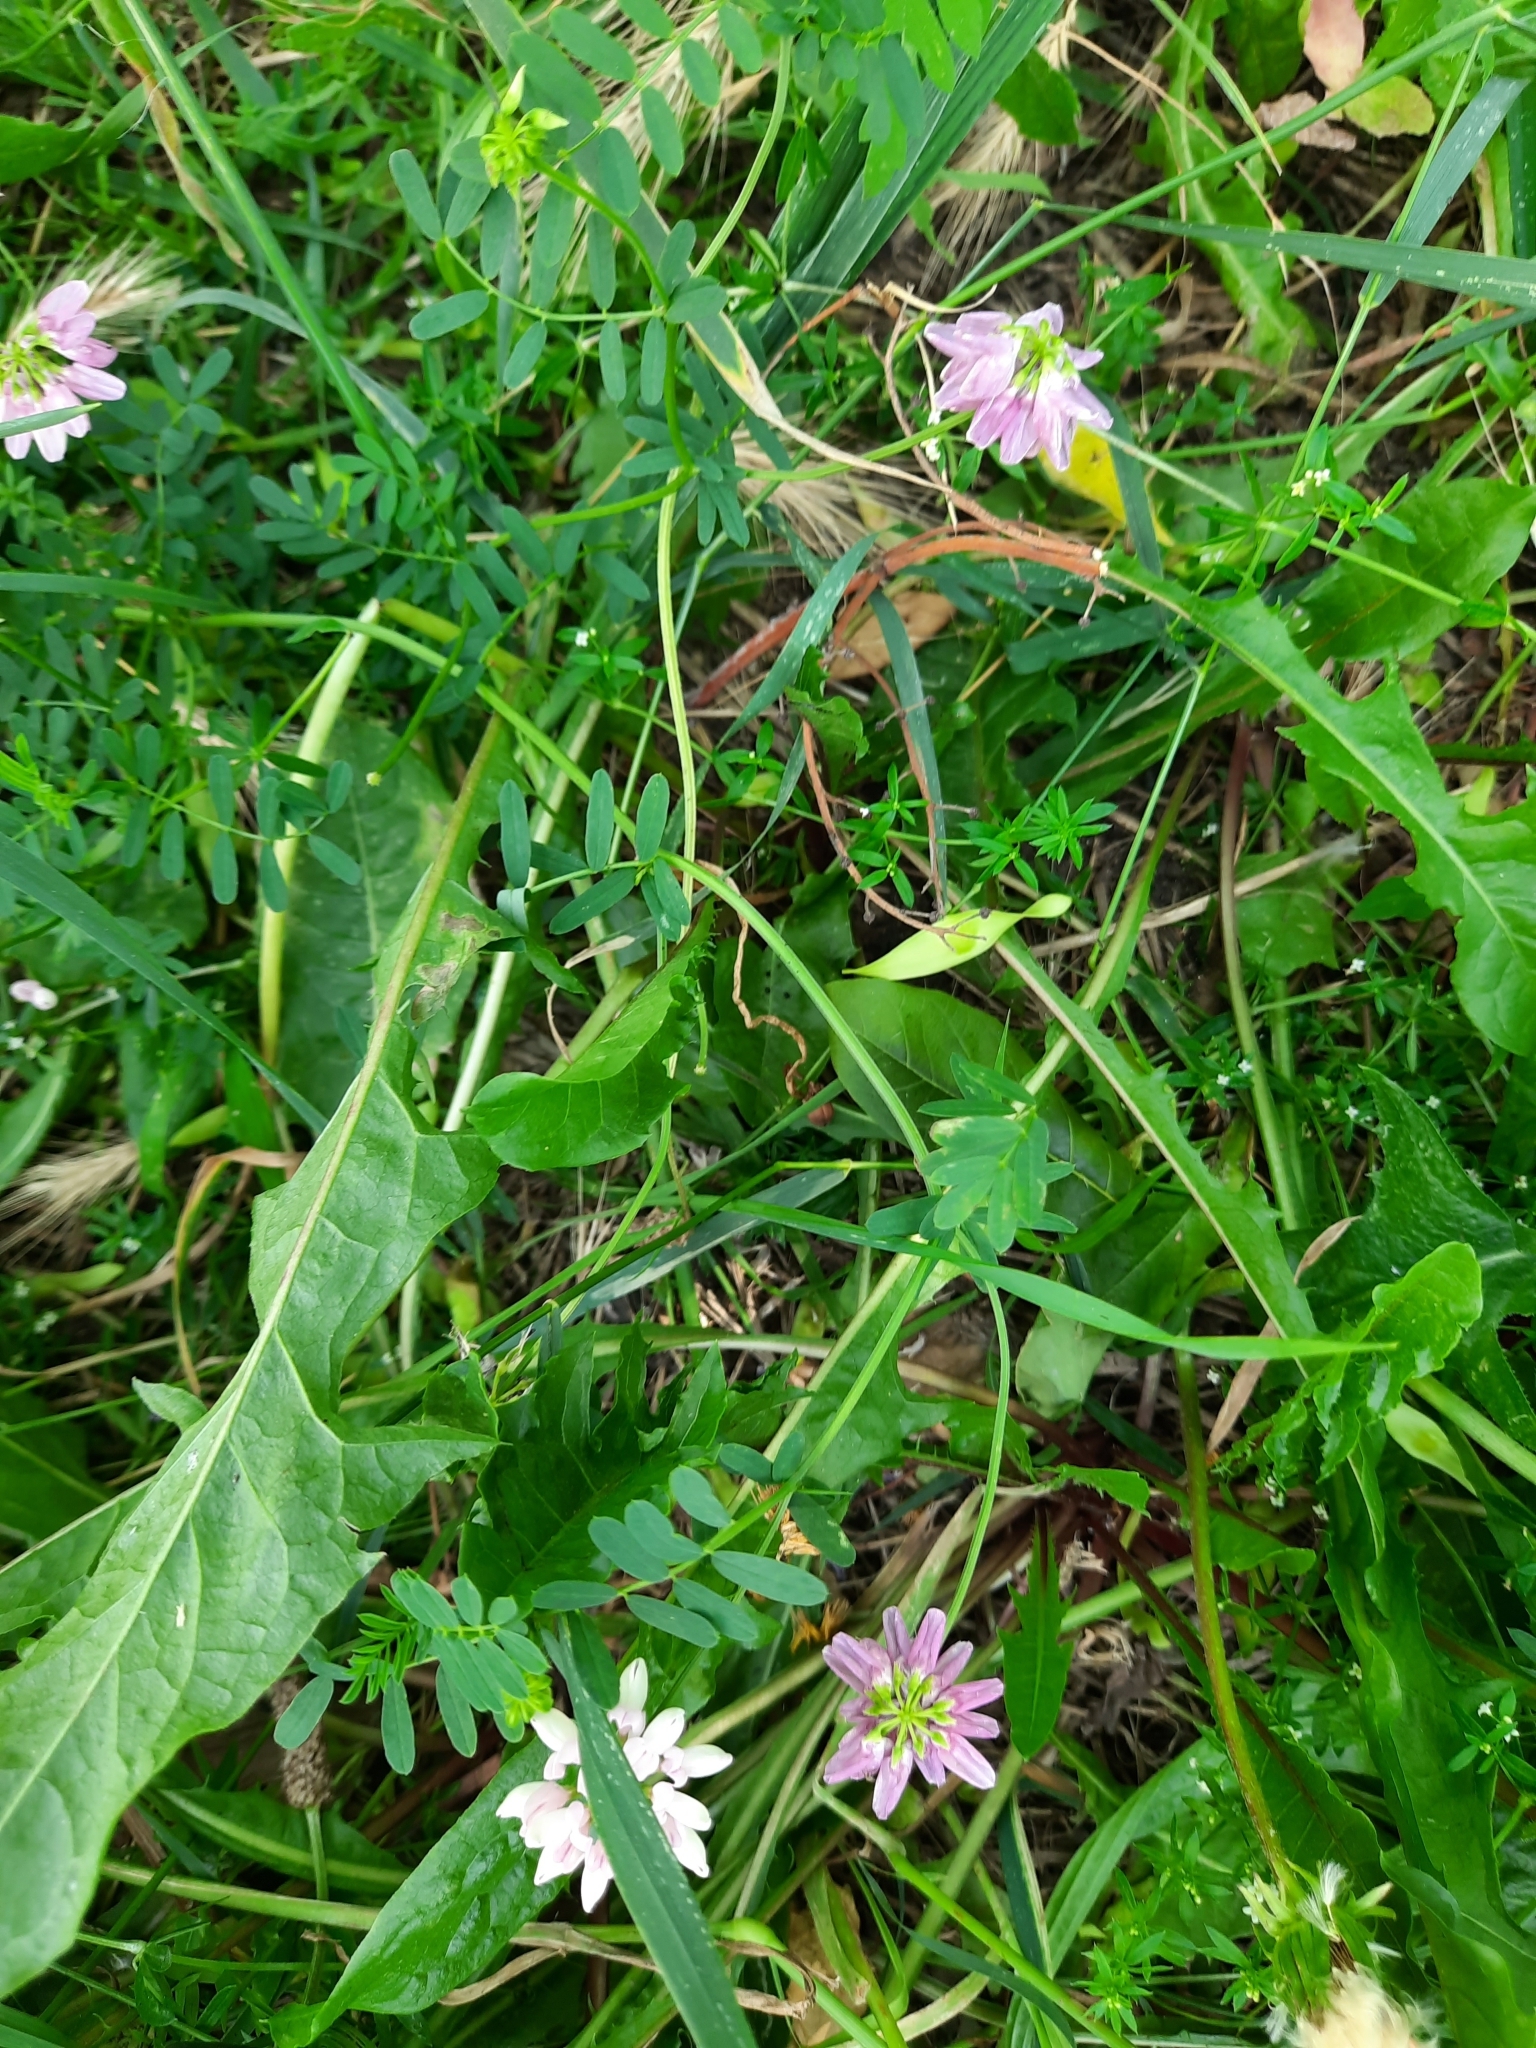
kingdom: Plantae
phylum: Tracheophyta
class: Magnoliopsida
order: Fabales
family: Fabaceae
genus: Coronilla
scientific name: Coronilla varia
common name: Crownvetch
